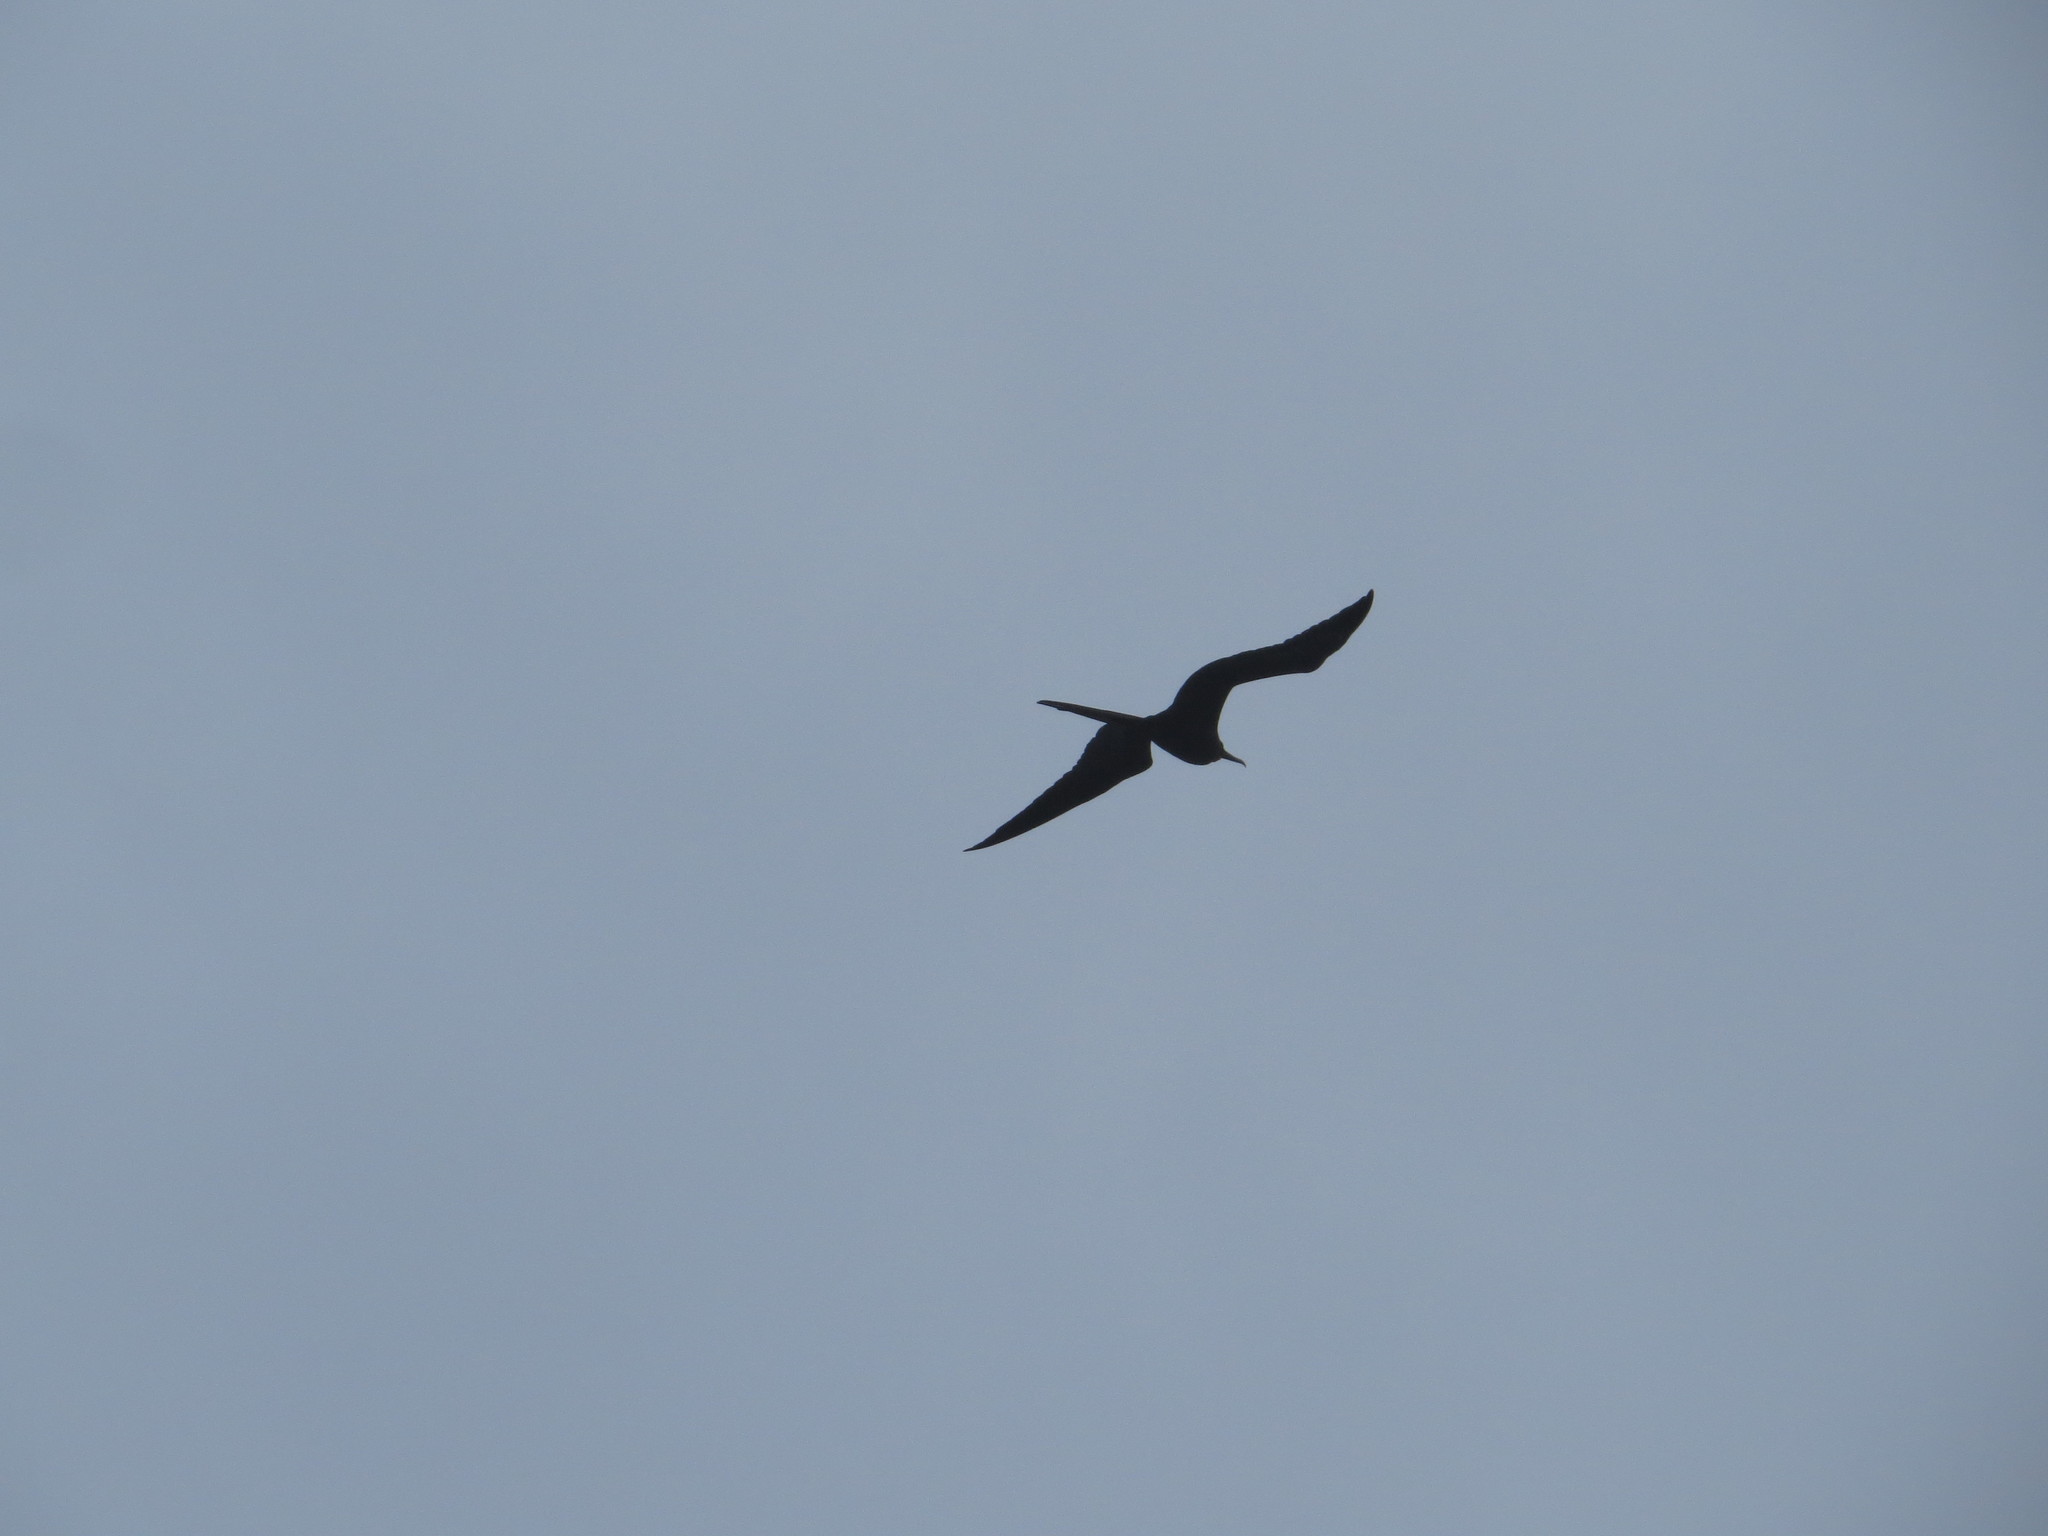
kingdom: Animalia
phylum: Chordata
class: Aves
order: Suliformes
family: Fregatidae
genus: Fregata
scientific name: Fregata
